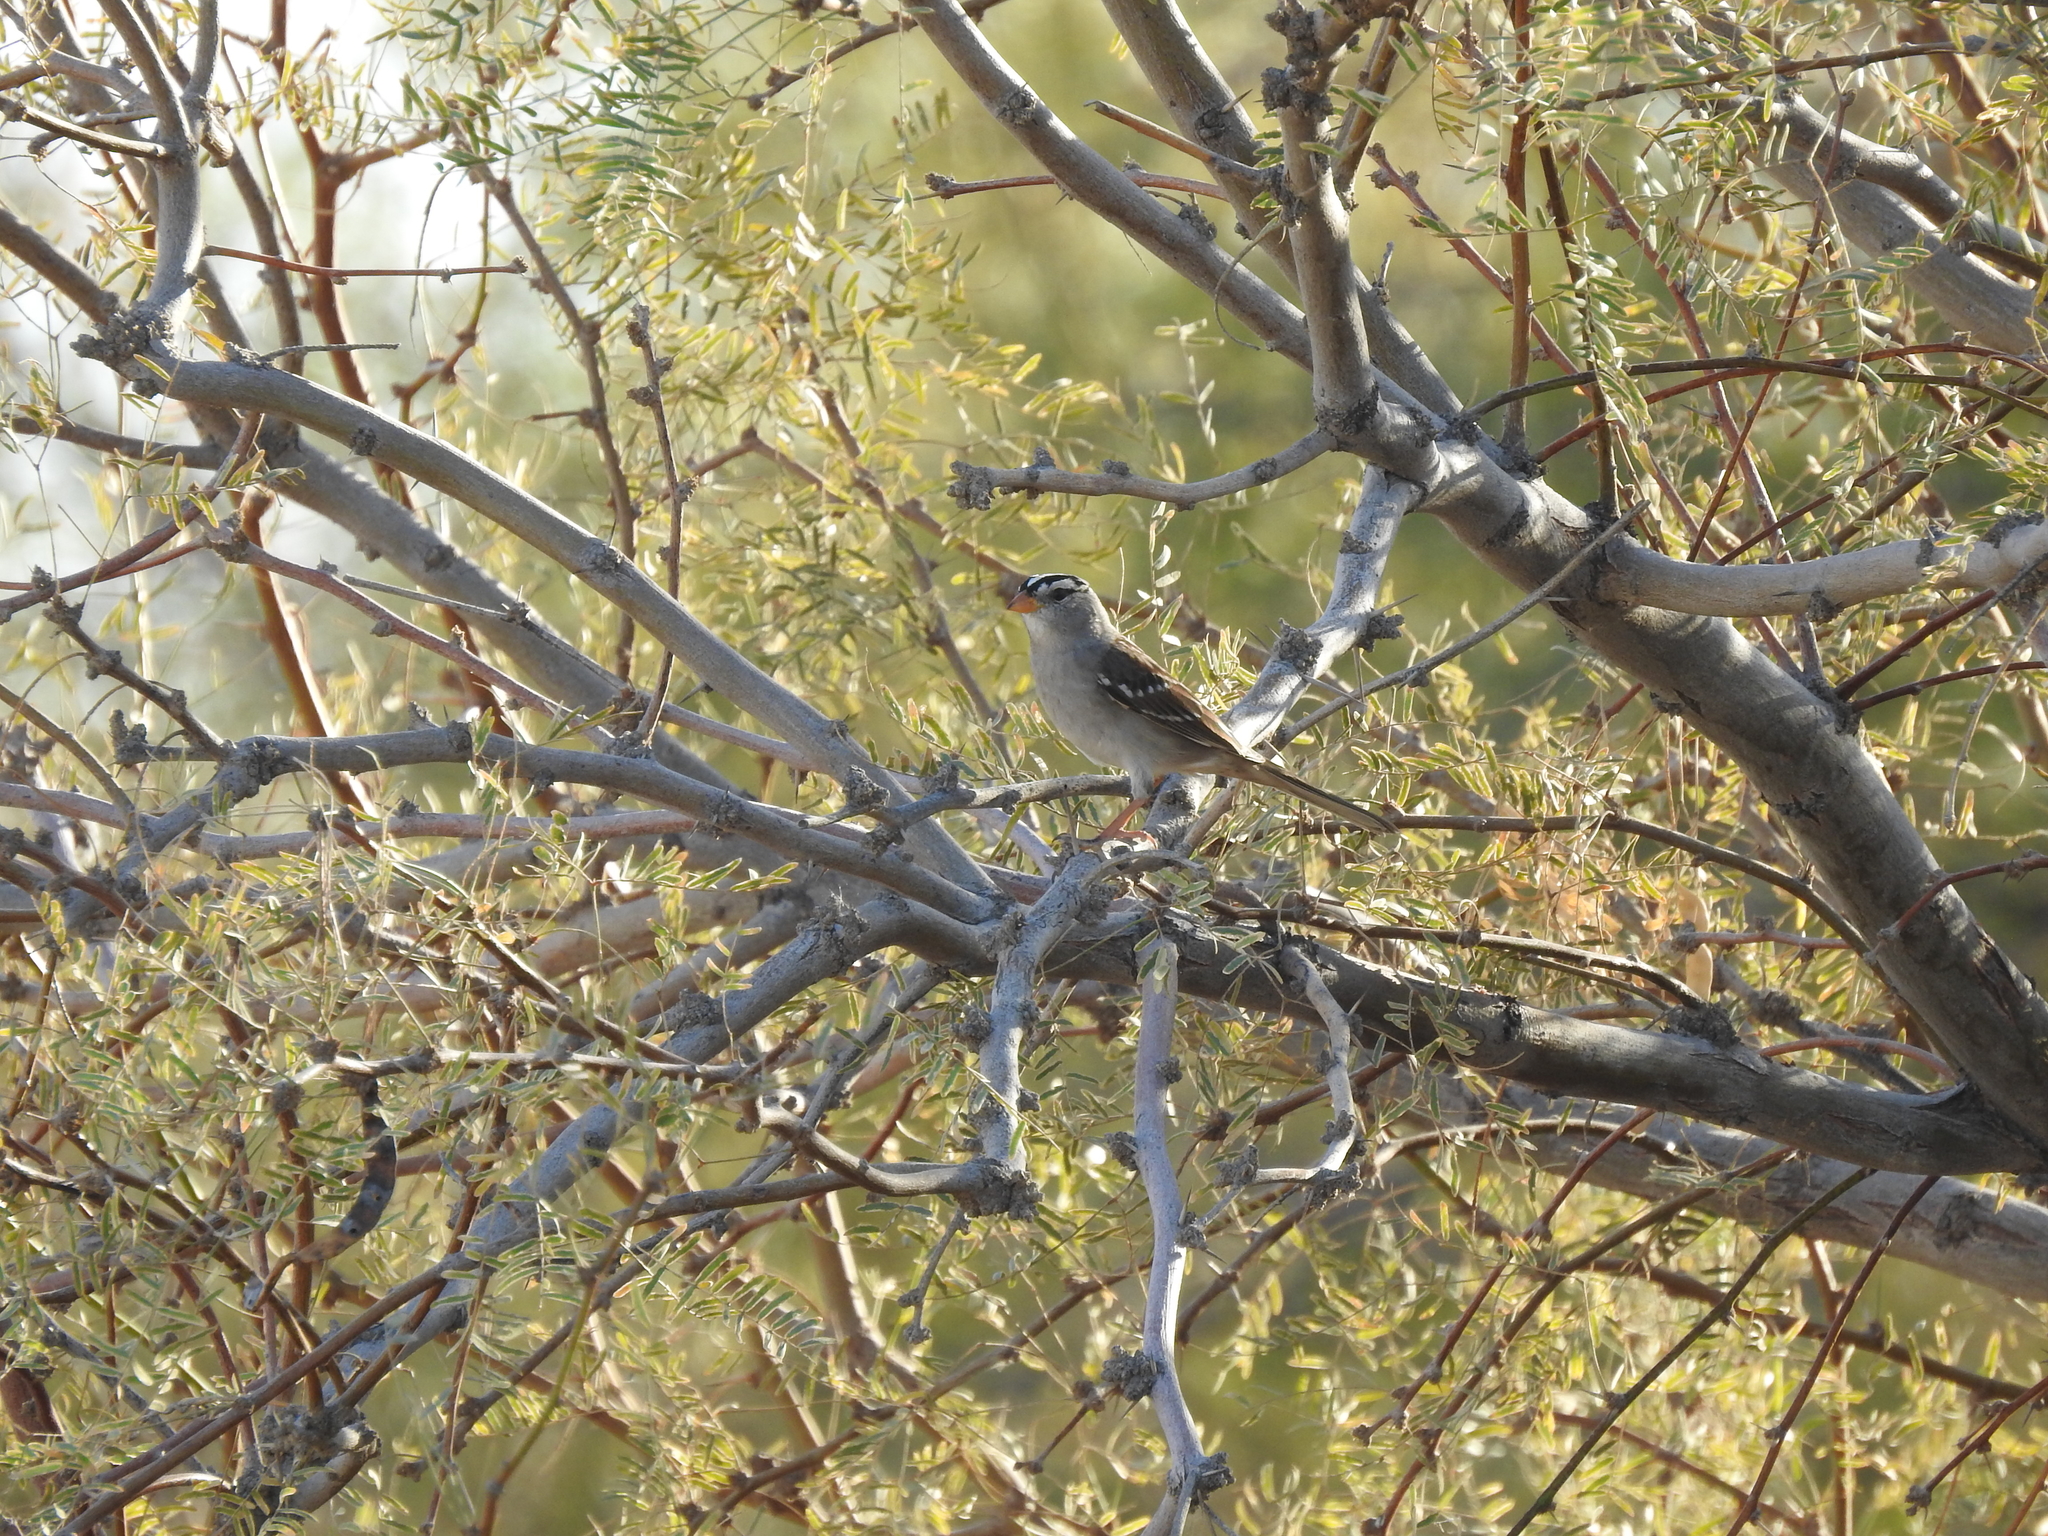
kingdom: Animalia
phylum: Chordata
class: Aves
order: Passeriformes
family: Passerellidae
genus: Zonotrichia
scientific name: Zonotrichia leucophrys
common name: White-crowned sparrow
